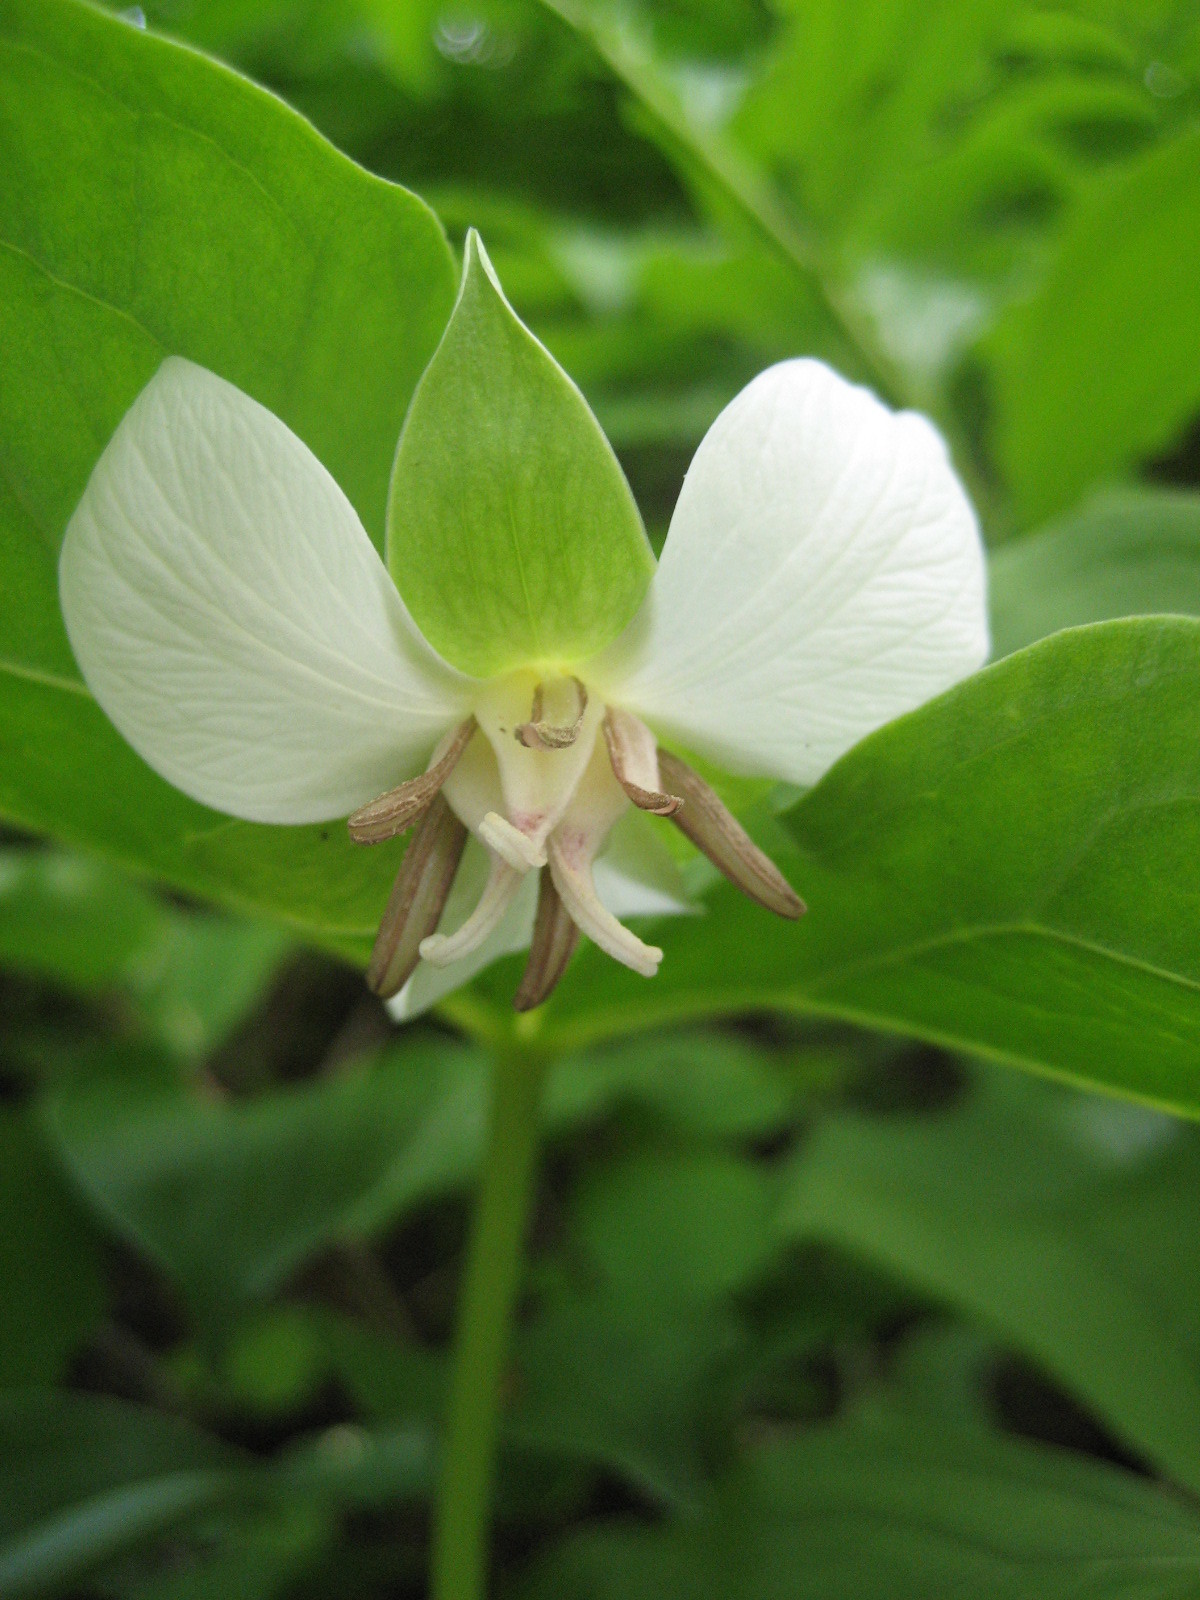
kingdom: Plantae
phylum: Tracheophyta
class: Liliopsida
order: Liliales
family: Melanthiaceae
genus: Trillium
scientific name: Trillium flexipes
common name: Drooping trillium
